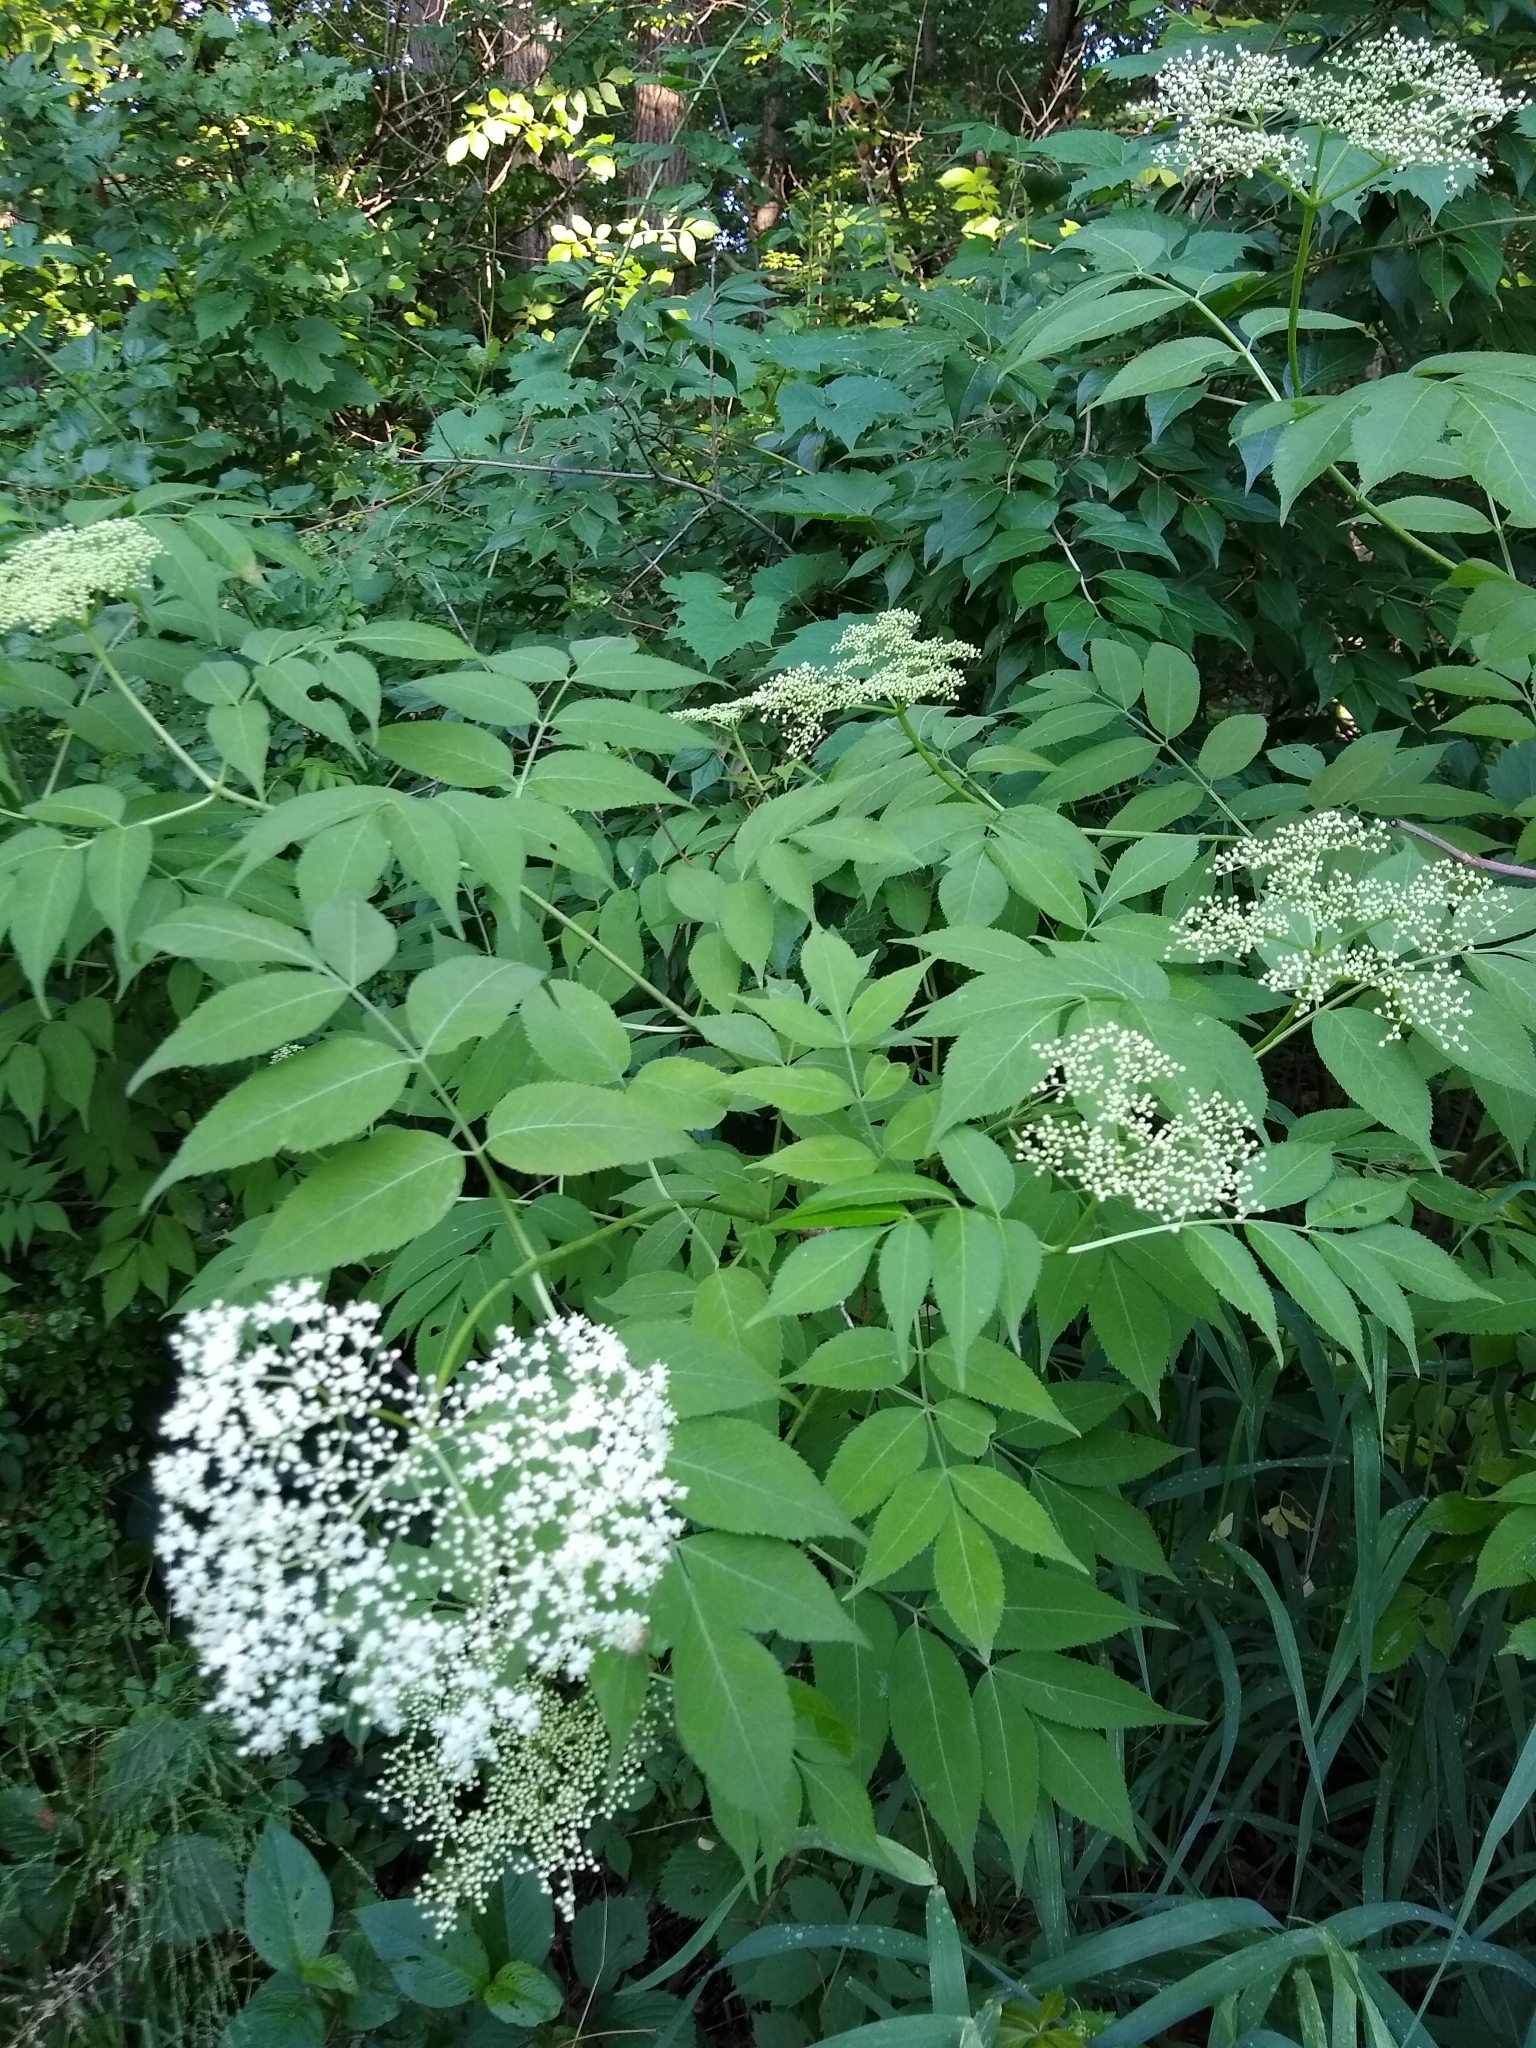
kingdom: Plantae
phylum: Tracheophyta
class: Magnoliopsida
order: Dipsacales
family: Viburnaceae
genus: Sambucus
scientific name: Sambucus canadensis
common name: American elder
